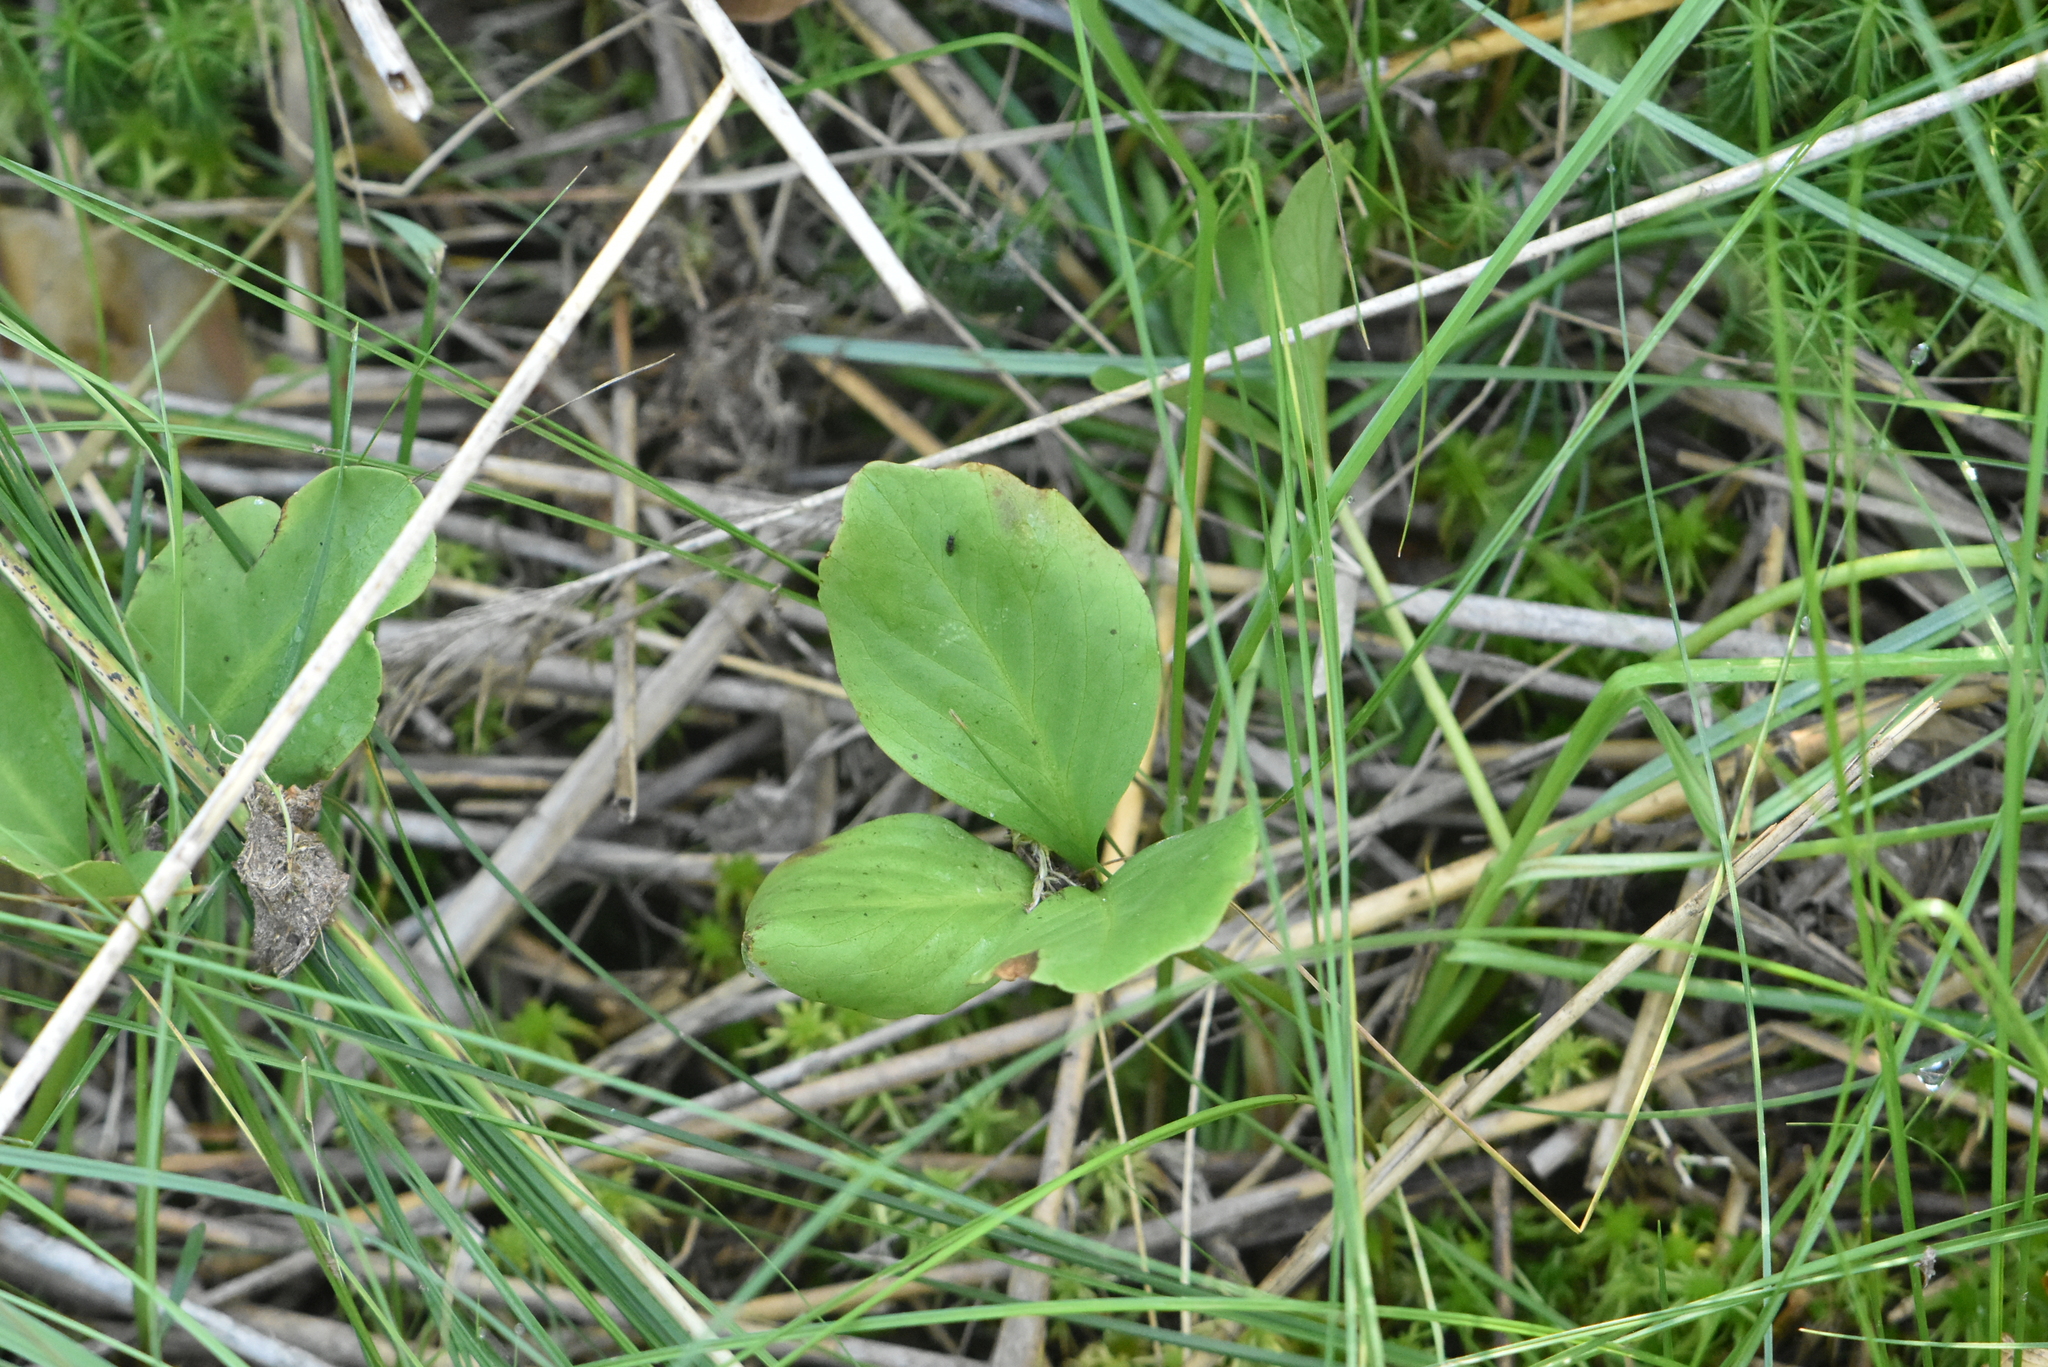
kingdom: Plantae
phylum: Tracheophyta
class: Magnoliopsida
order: Asterales
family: Menyanthaceae
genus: Menyanthes
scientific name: Menyanthes trifoliata
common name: Bogbean
